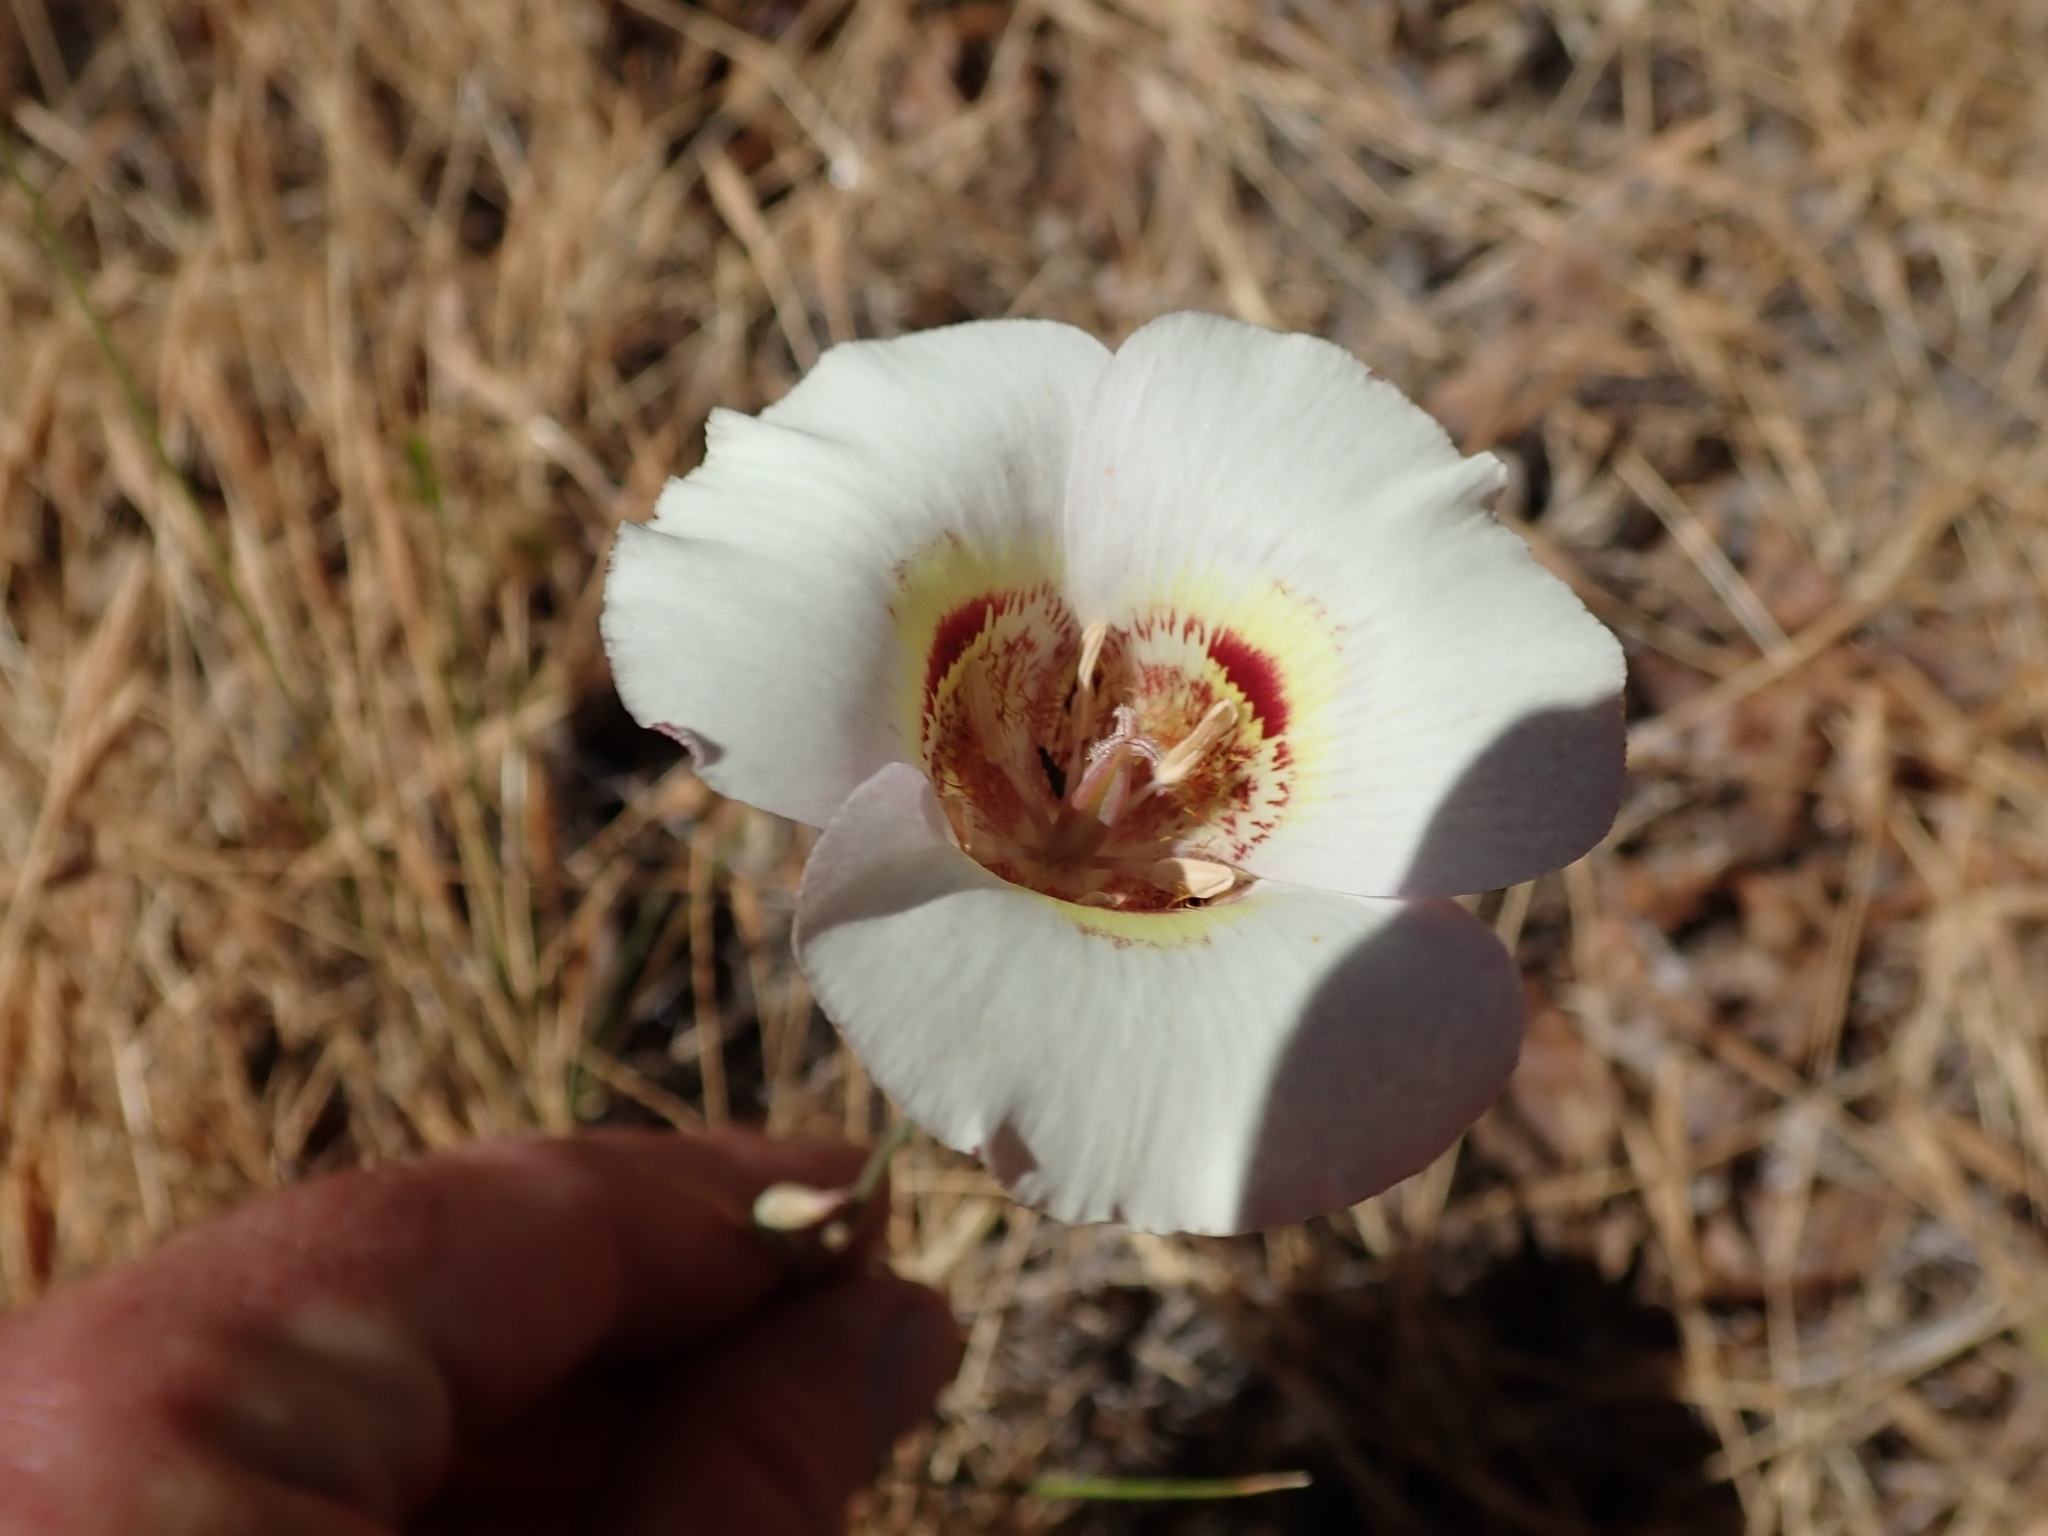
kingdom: Plantae
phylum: Tracheophyta
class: Liliopsida
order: Liliales
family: Liliaceae
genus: Calochortus
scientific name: Calochortus argillosus
